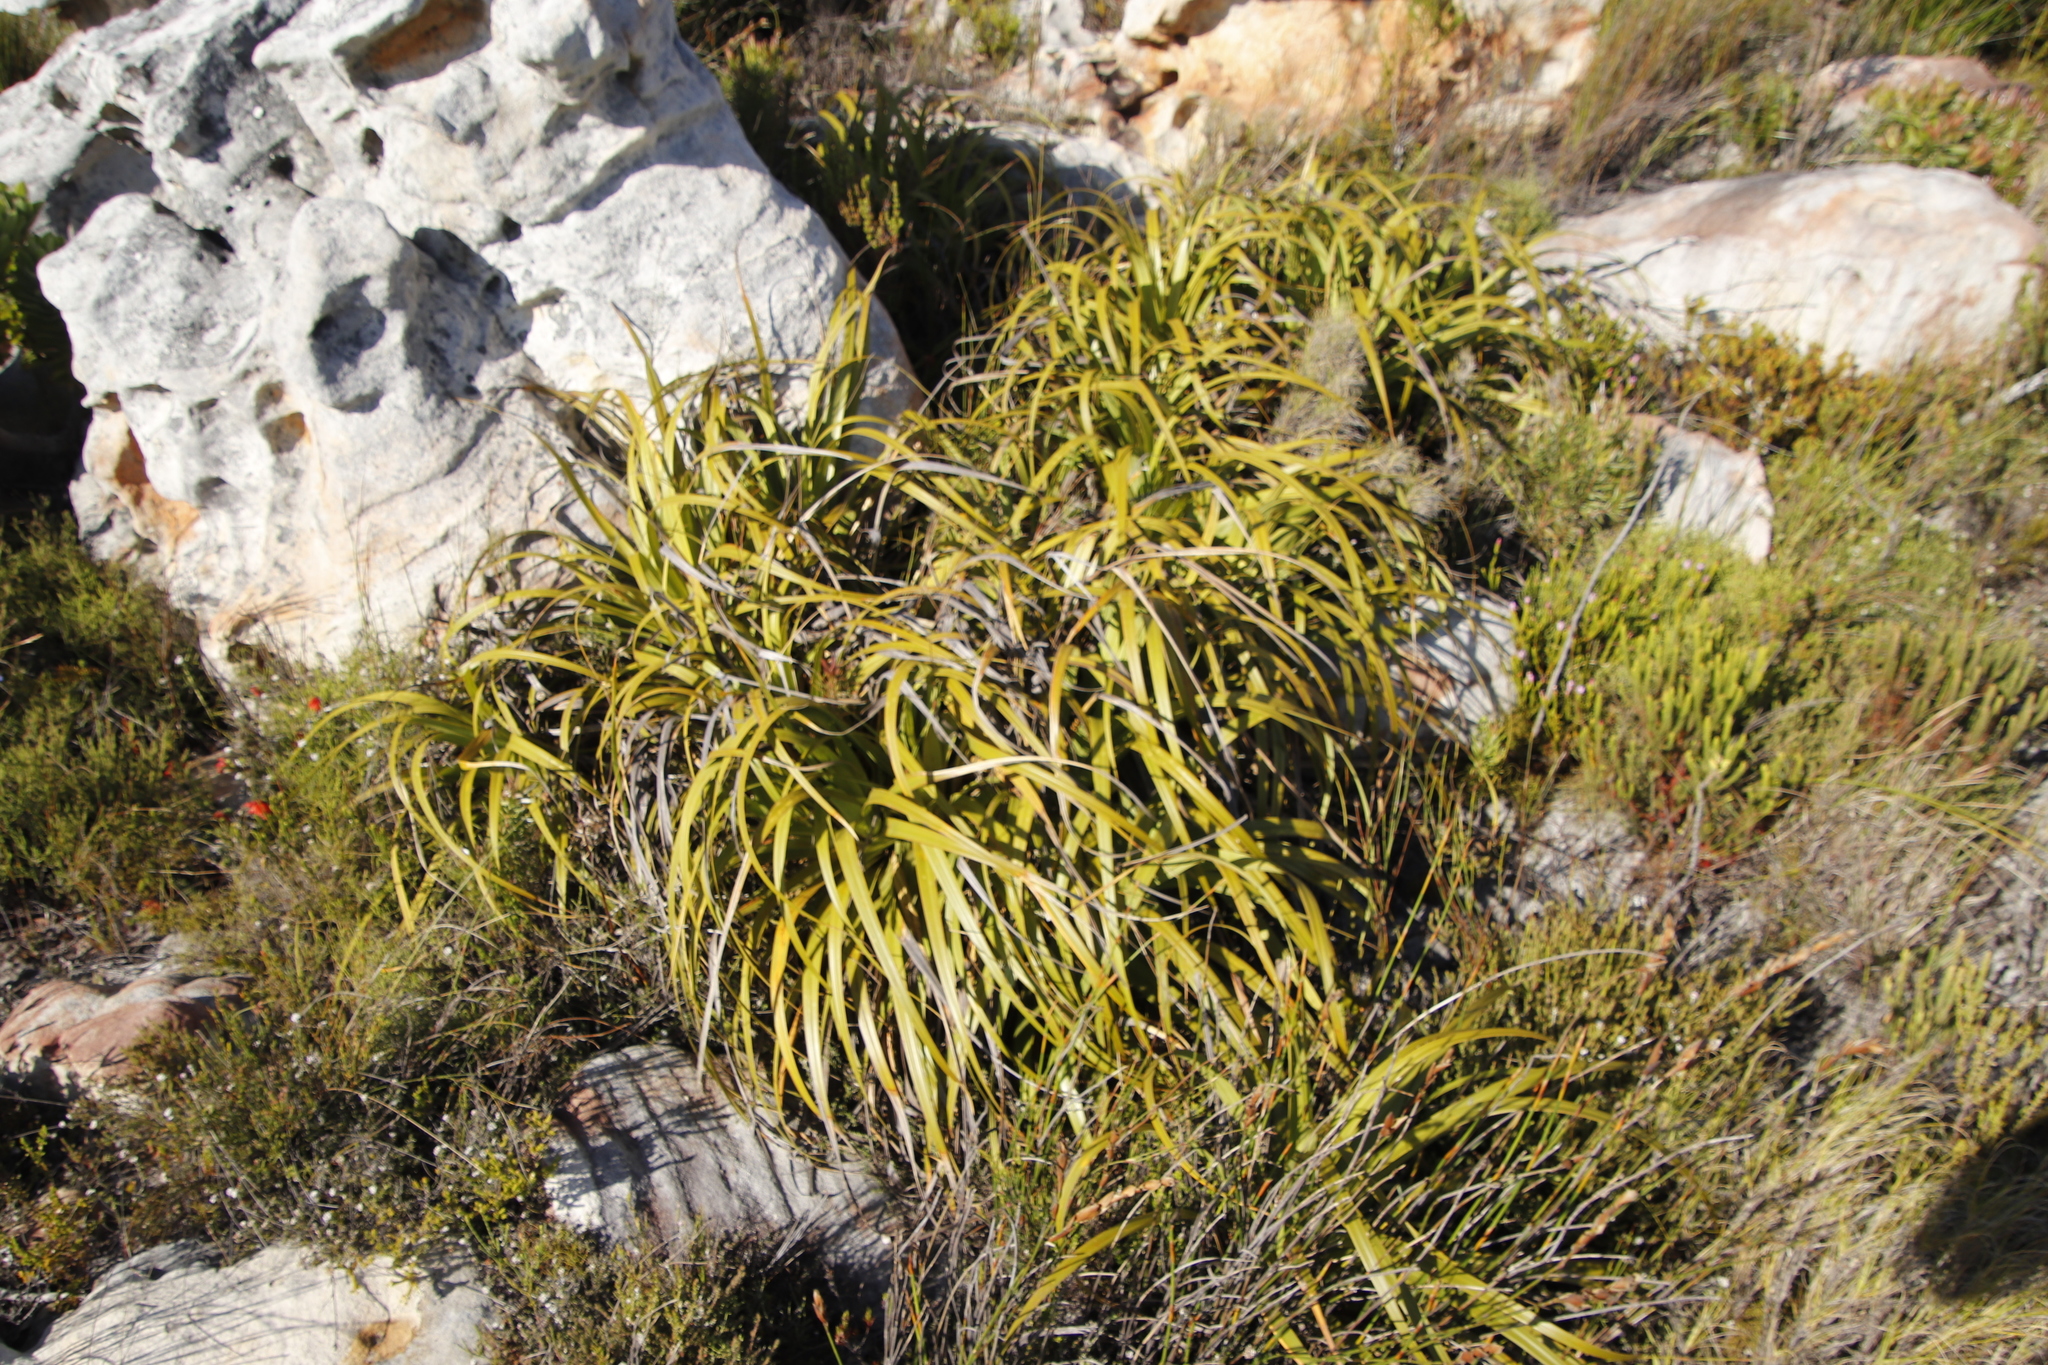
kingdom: Plantae
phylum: Tracheophyta
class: Liliopsida
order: Poales
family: Cyperaceae
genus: Tetraria
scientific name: Tetraria thermalis
